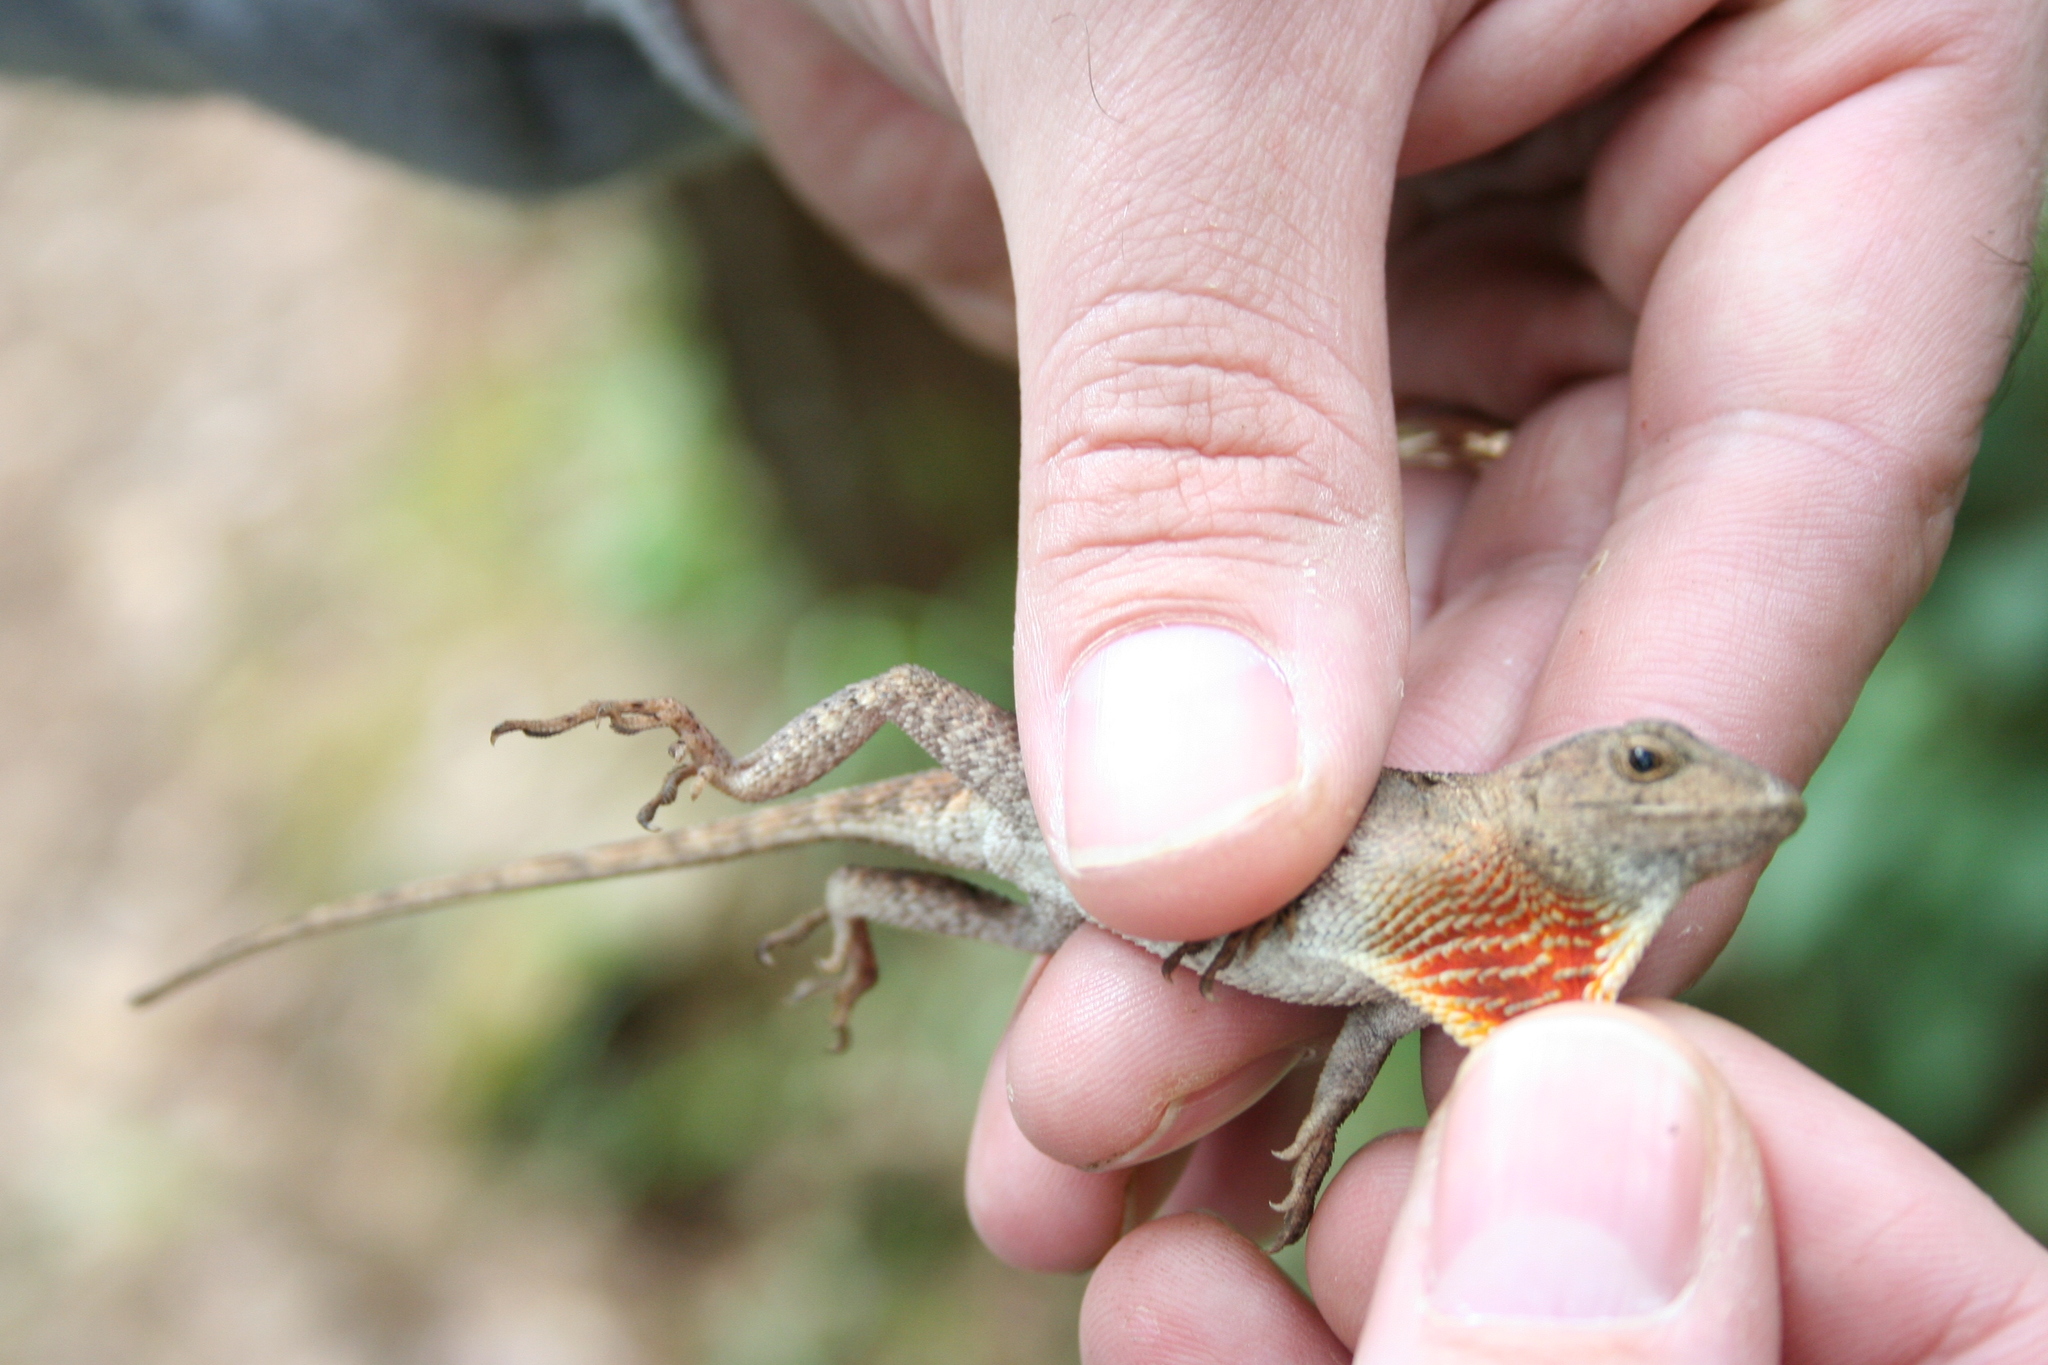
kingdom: Animalia
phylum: Chordata
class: Squamata
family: Dactyloidae
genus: Anolis
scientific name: Anolis mccraniei
